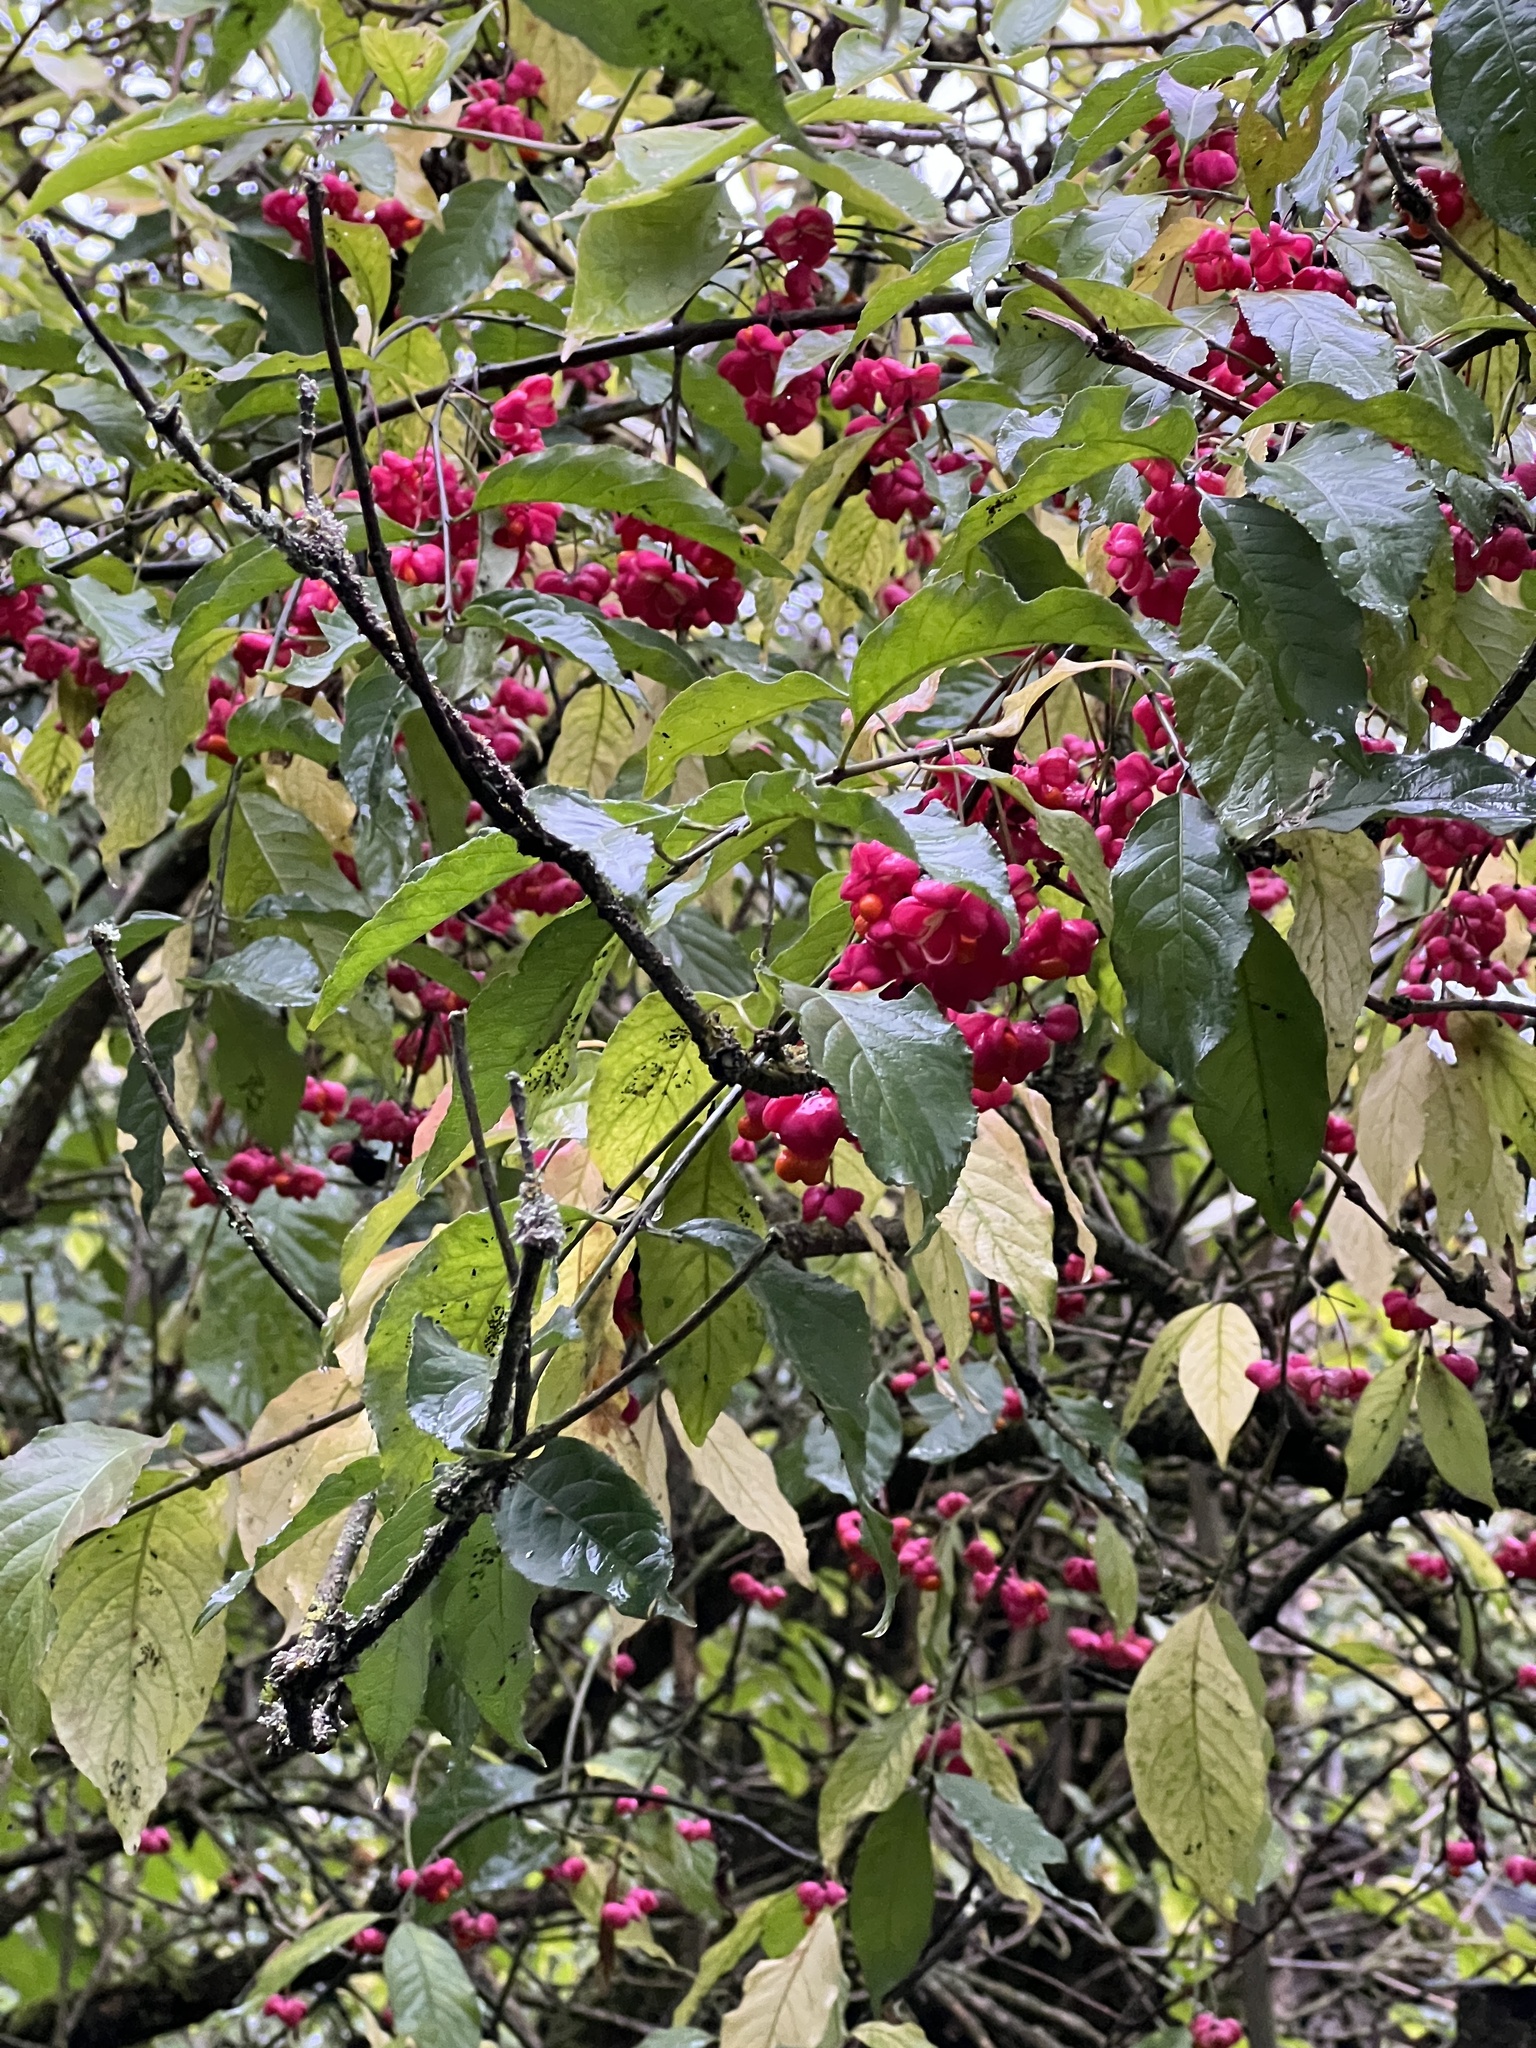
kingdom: Plantae
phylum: Tracheophyta
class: Magnoliopsida
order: Celastrales
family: Celastraceae
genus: Euonymus
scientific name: Euonymus europaeus
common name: Spindle
